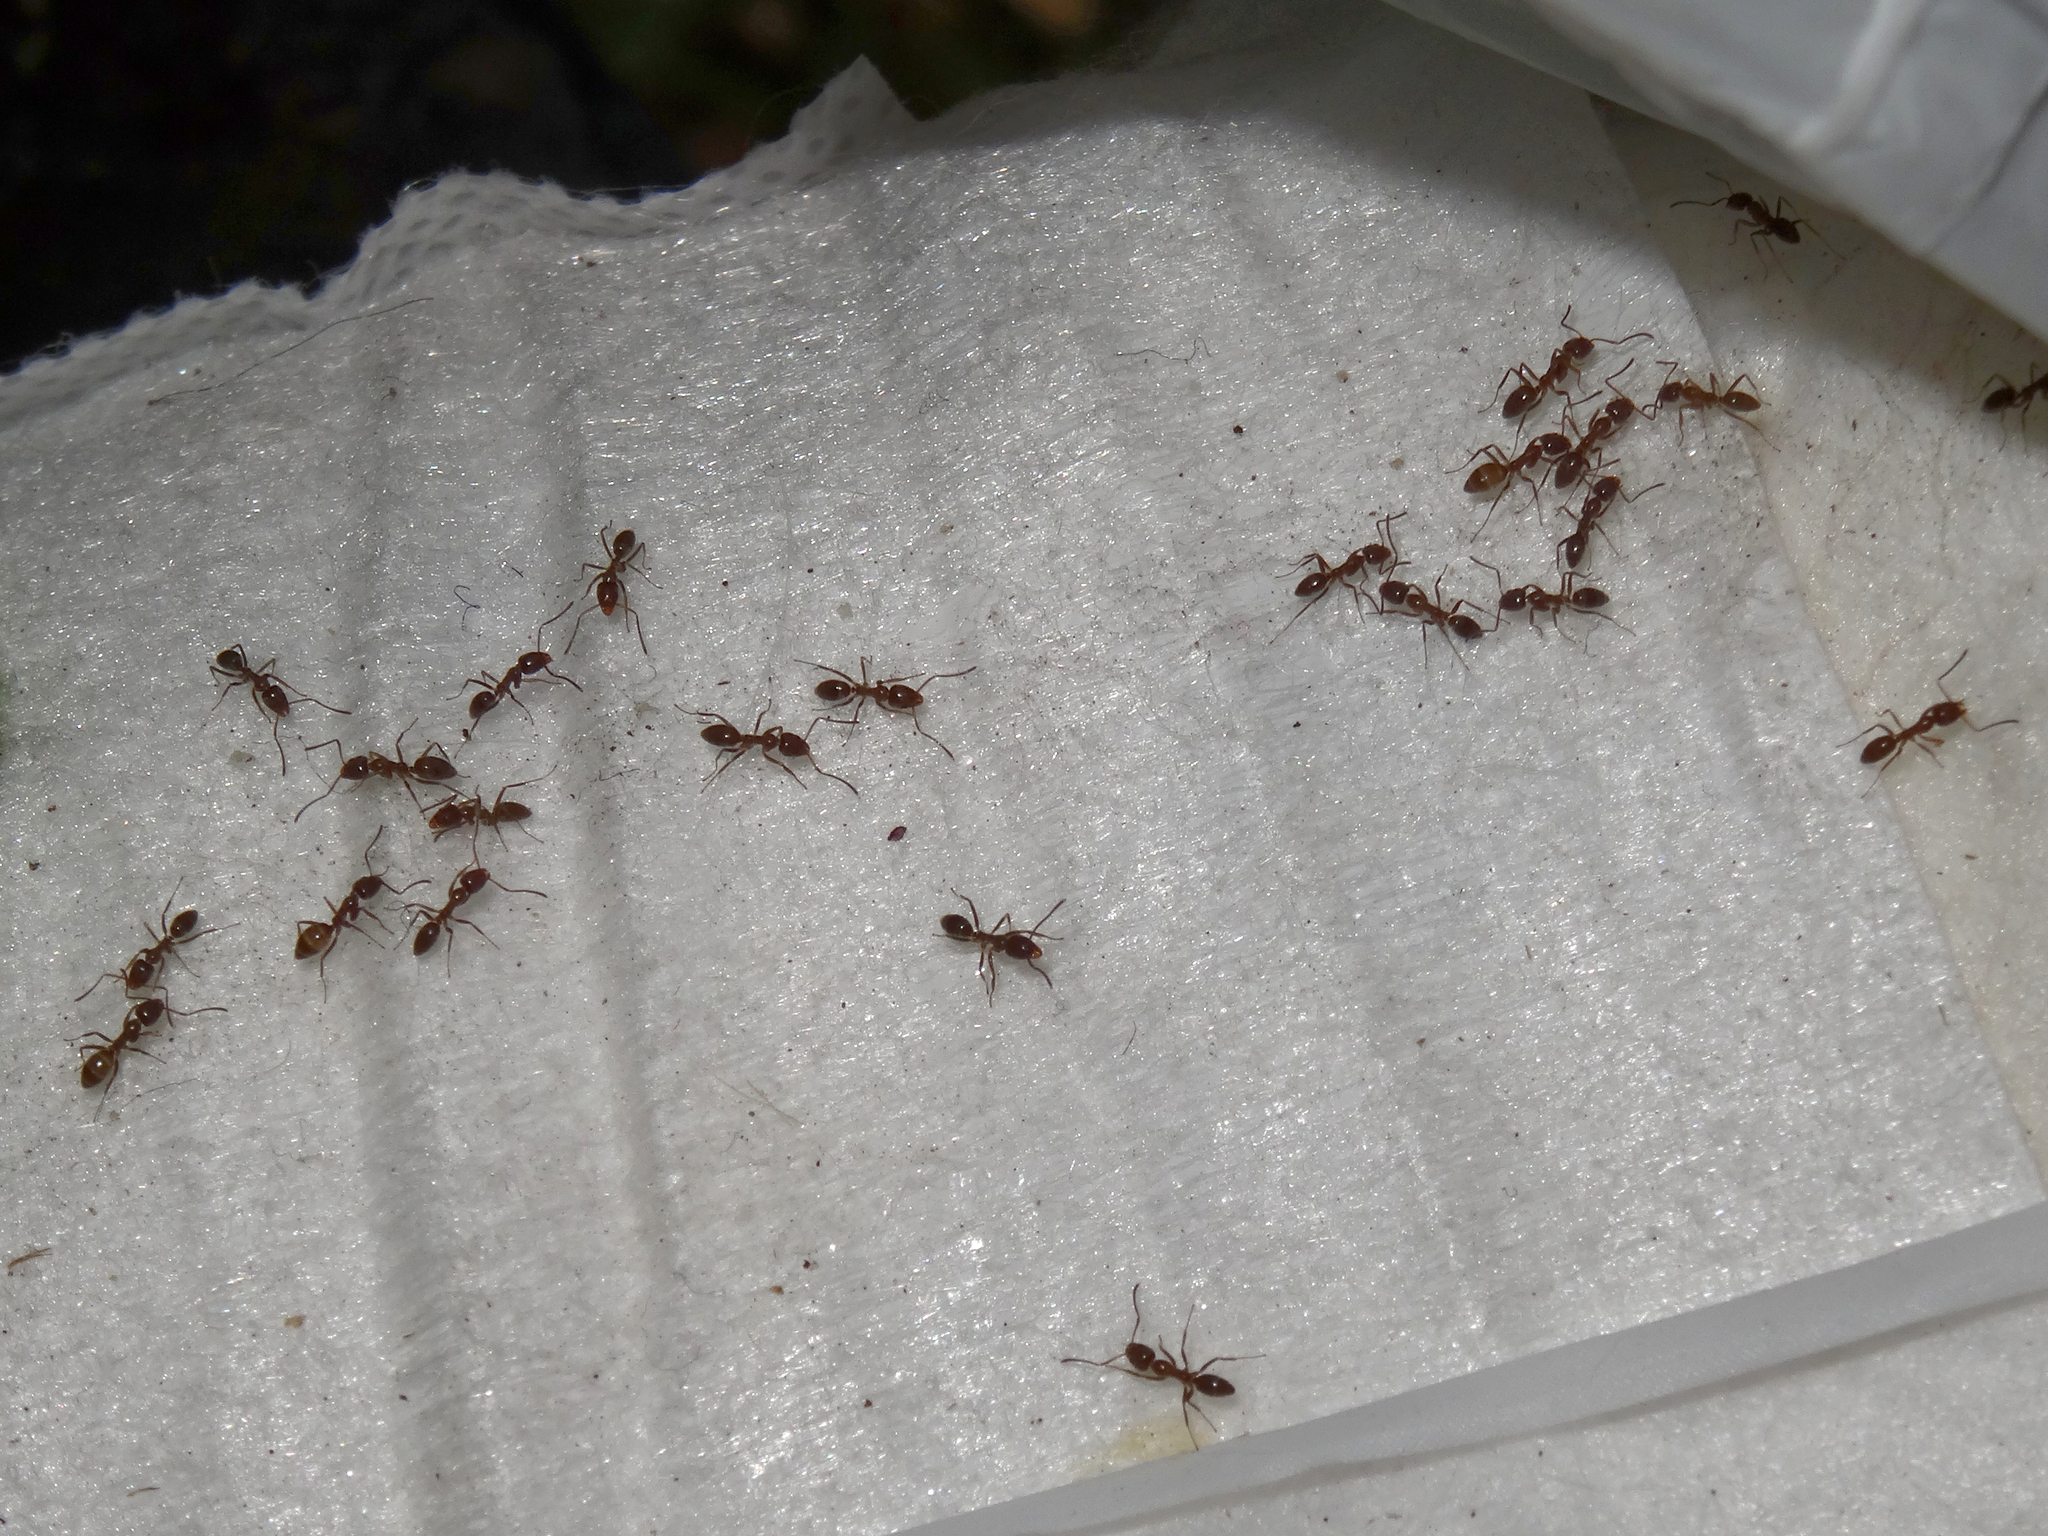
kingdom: Animalia
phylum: Arthropoda
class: Insecta
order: Hymenoptera
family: Formicidae
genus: Linepithema
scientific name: Linepithema humile
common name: Argentine ant
